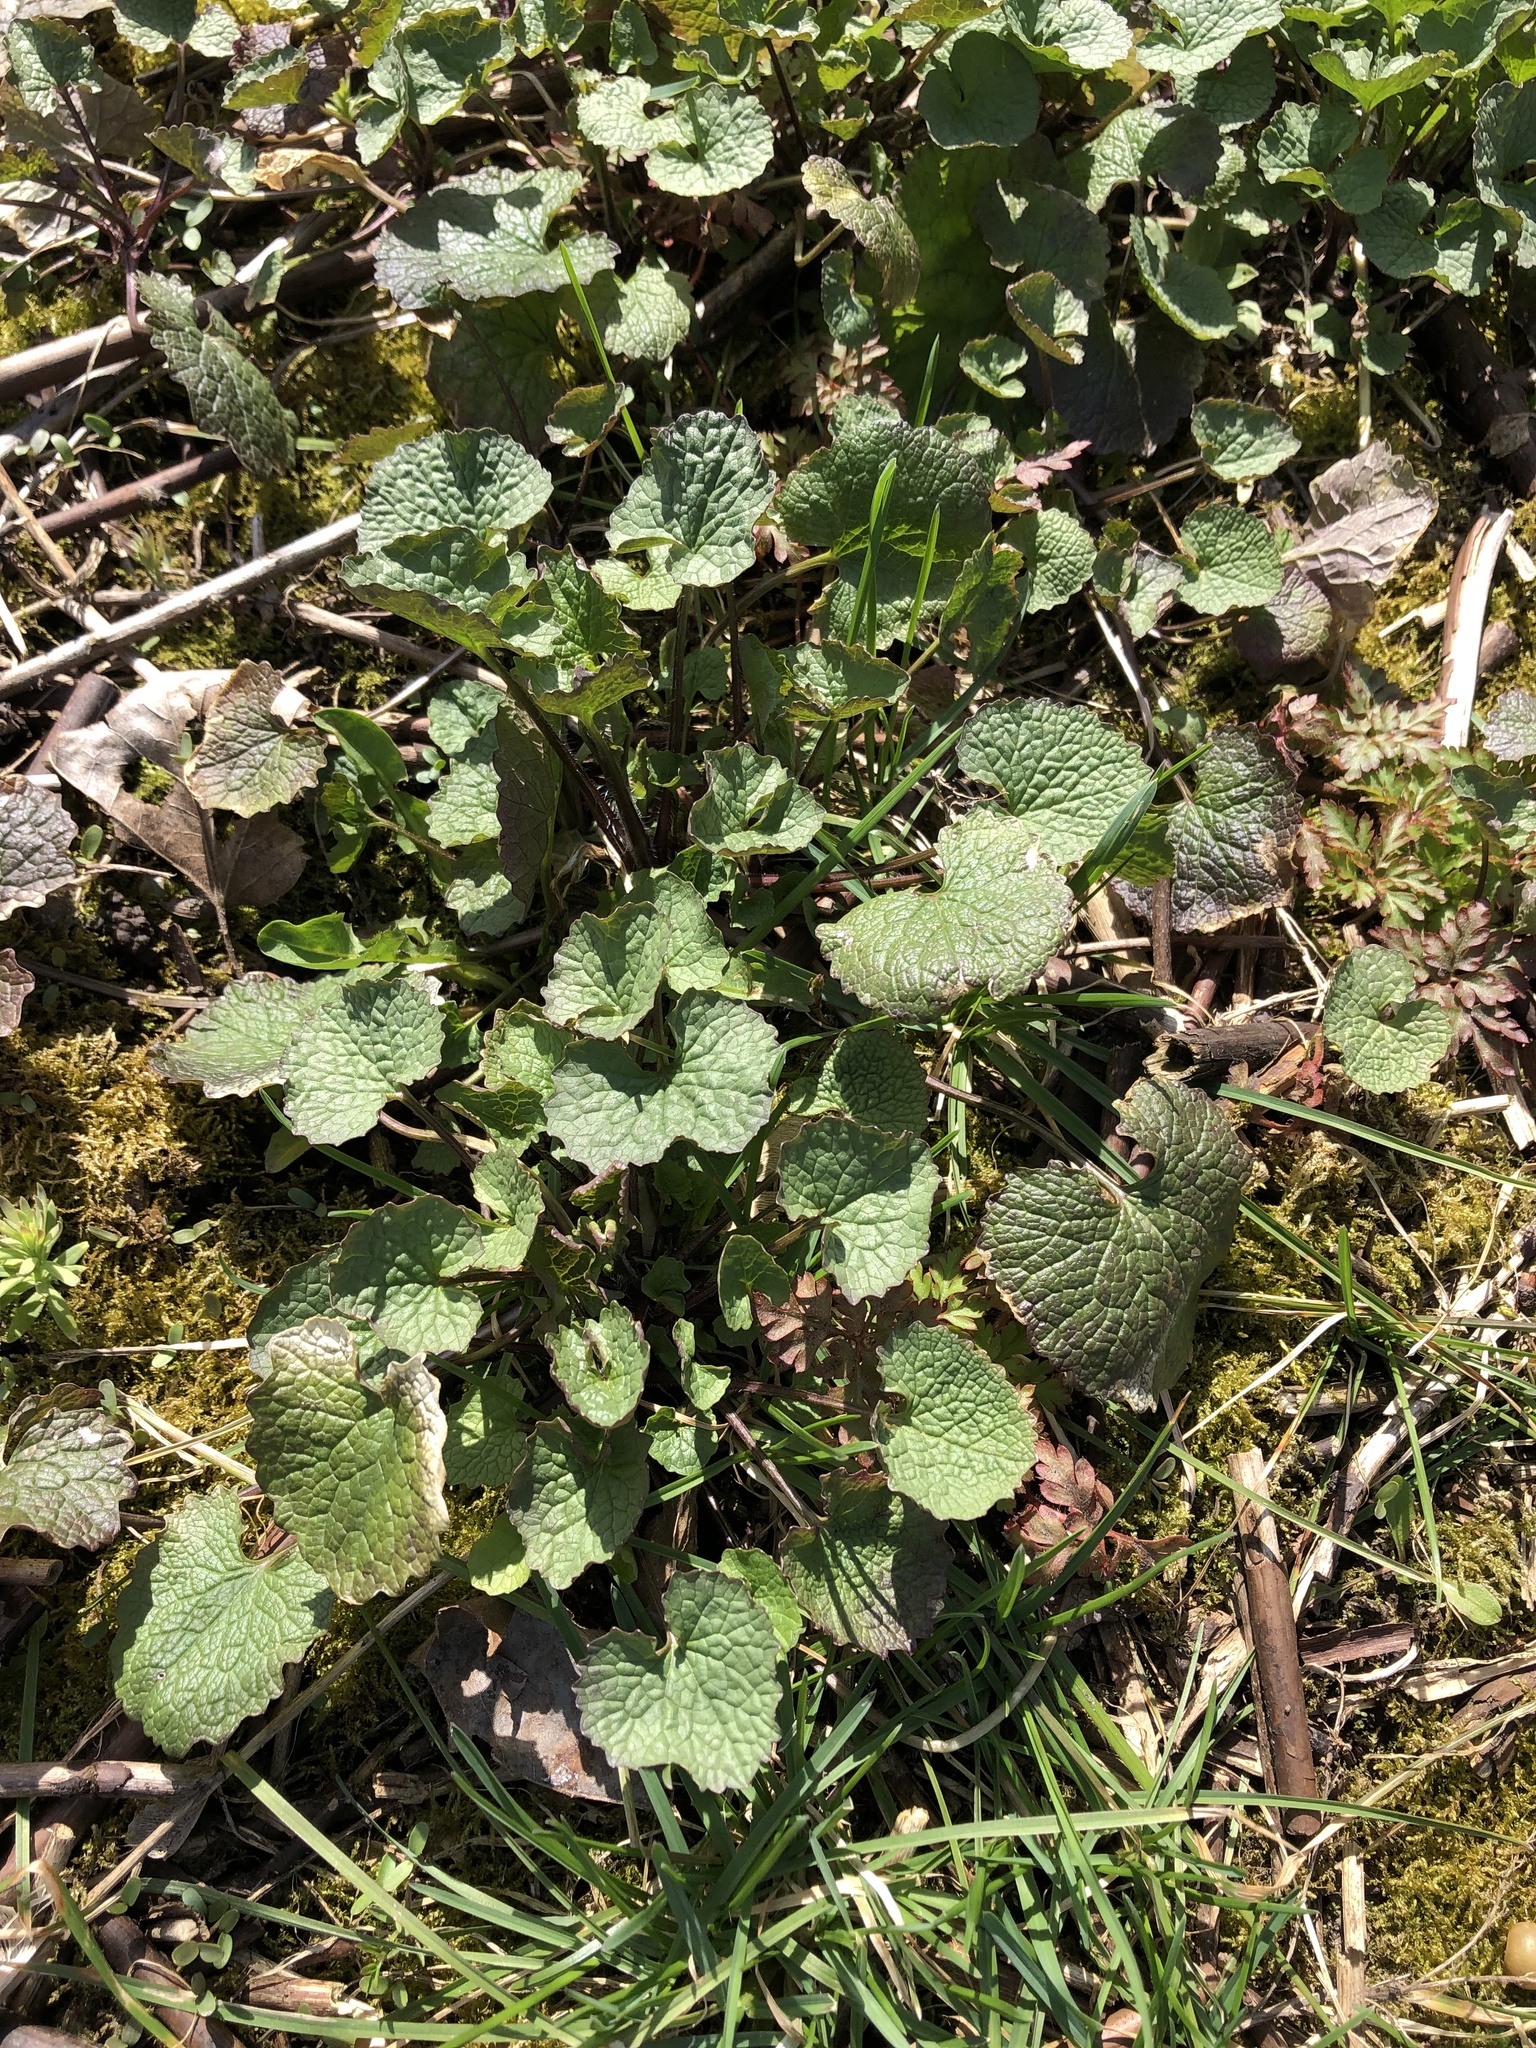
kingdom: Plantae
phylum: Tracheophyta
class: Magnoliopsida
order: Brassicales
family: Brassicaceae
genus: Alliaria
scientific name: Alliaria petiolata
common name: Garlic mustard
